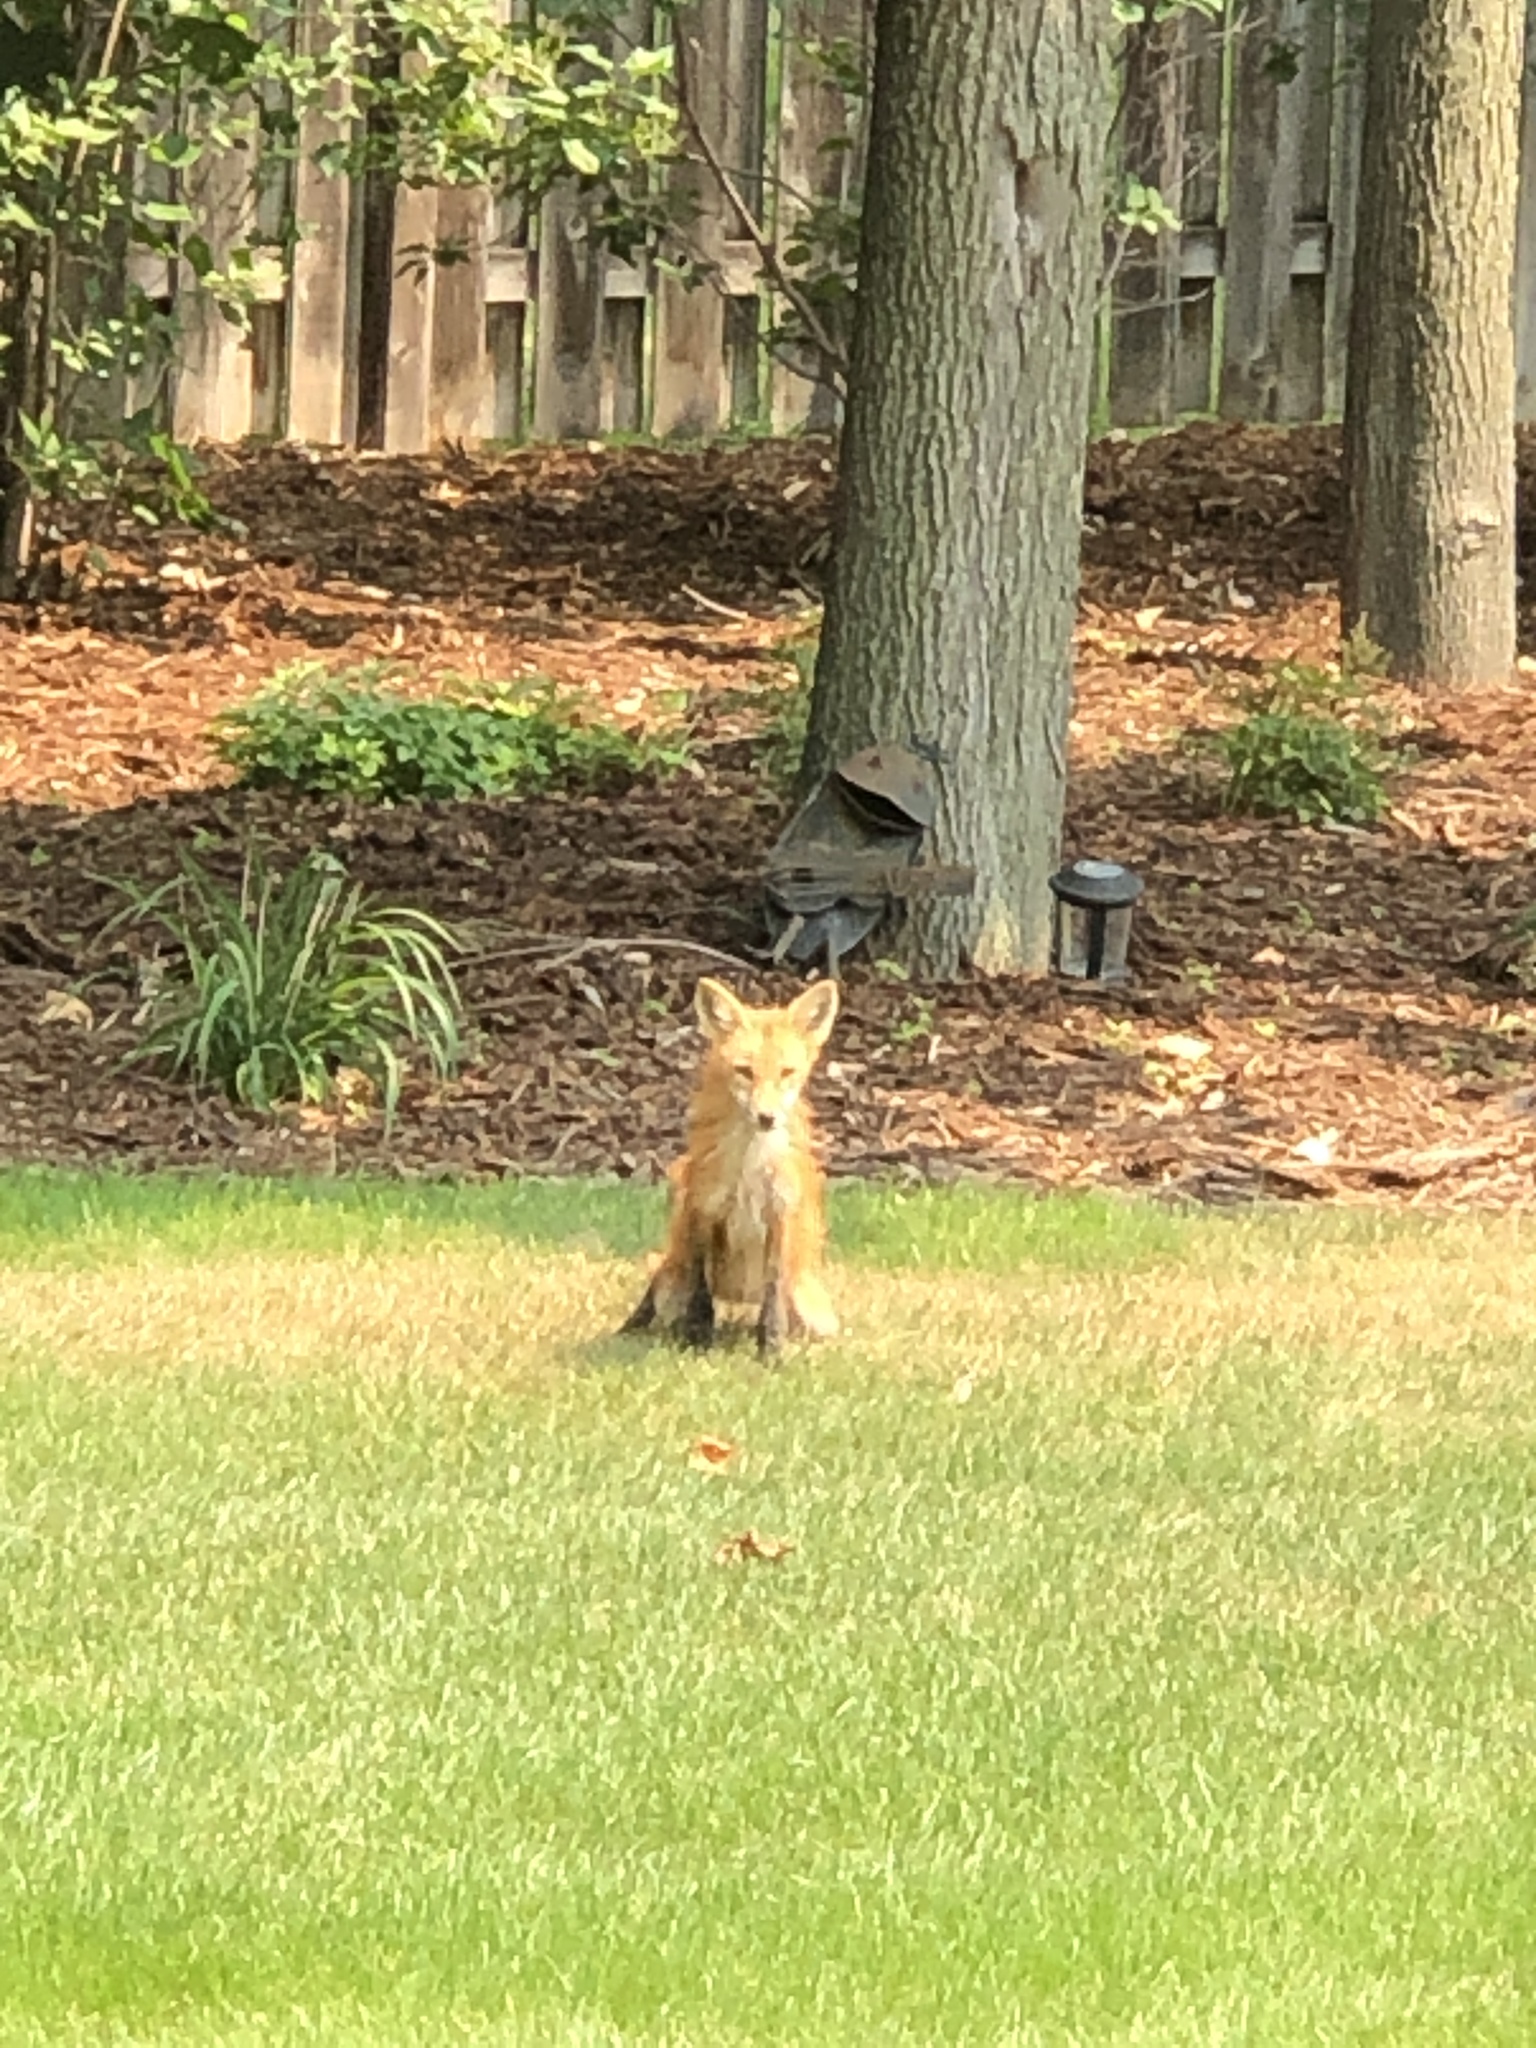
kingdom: Animalia
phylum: Chordata
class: Mammalia
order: Carnivora
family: Canidae
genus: Vulpes
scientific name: Vulpes vulpes
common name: Red fox
